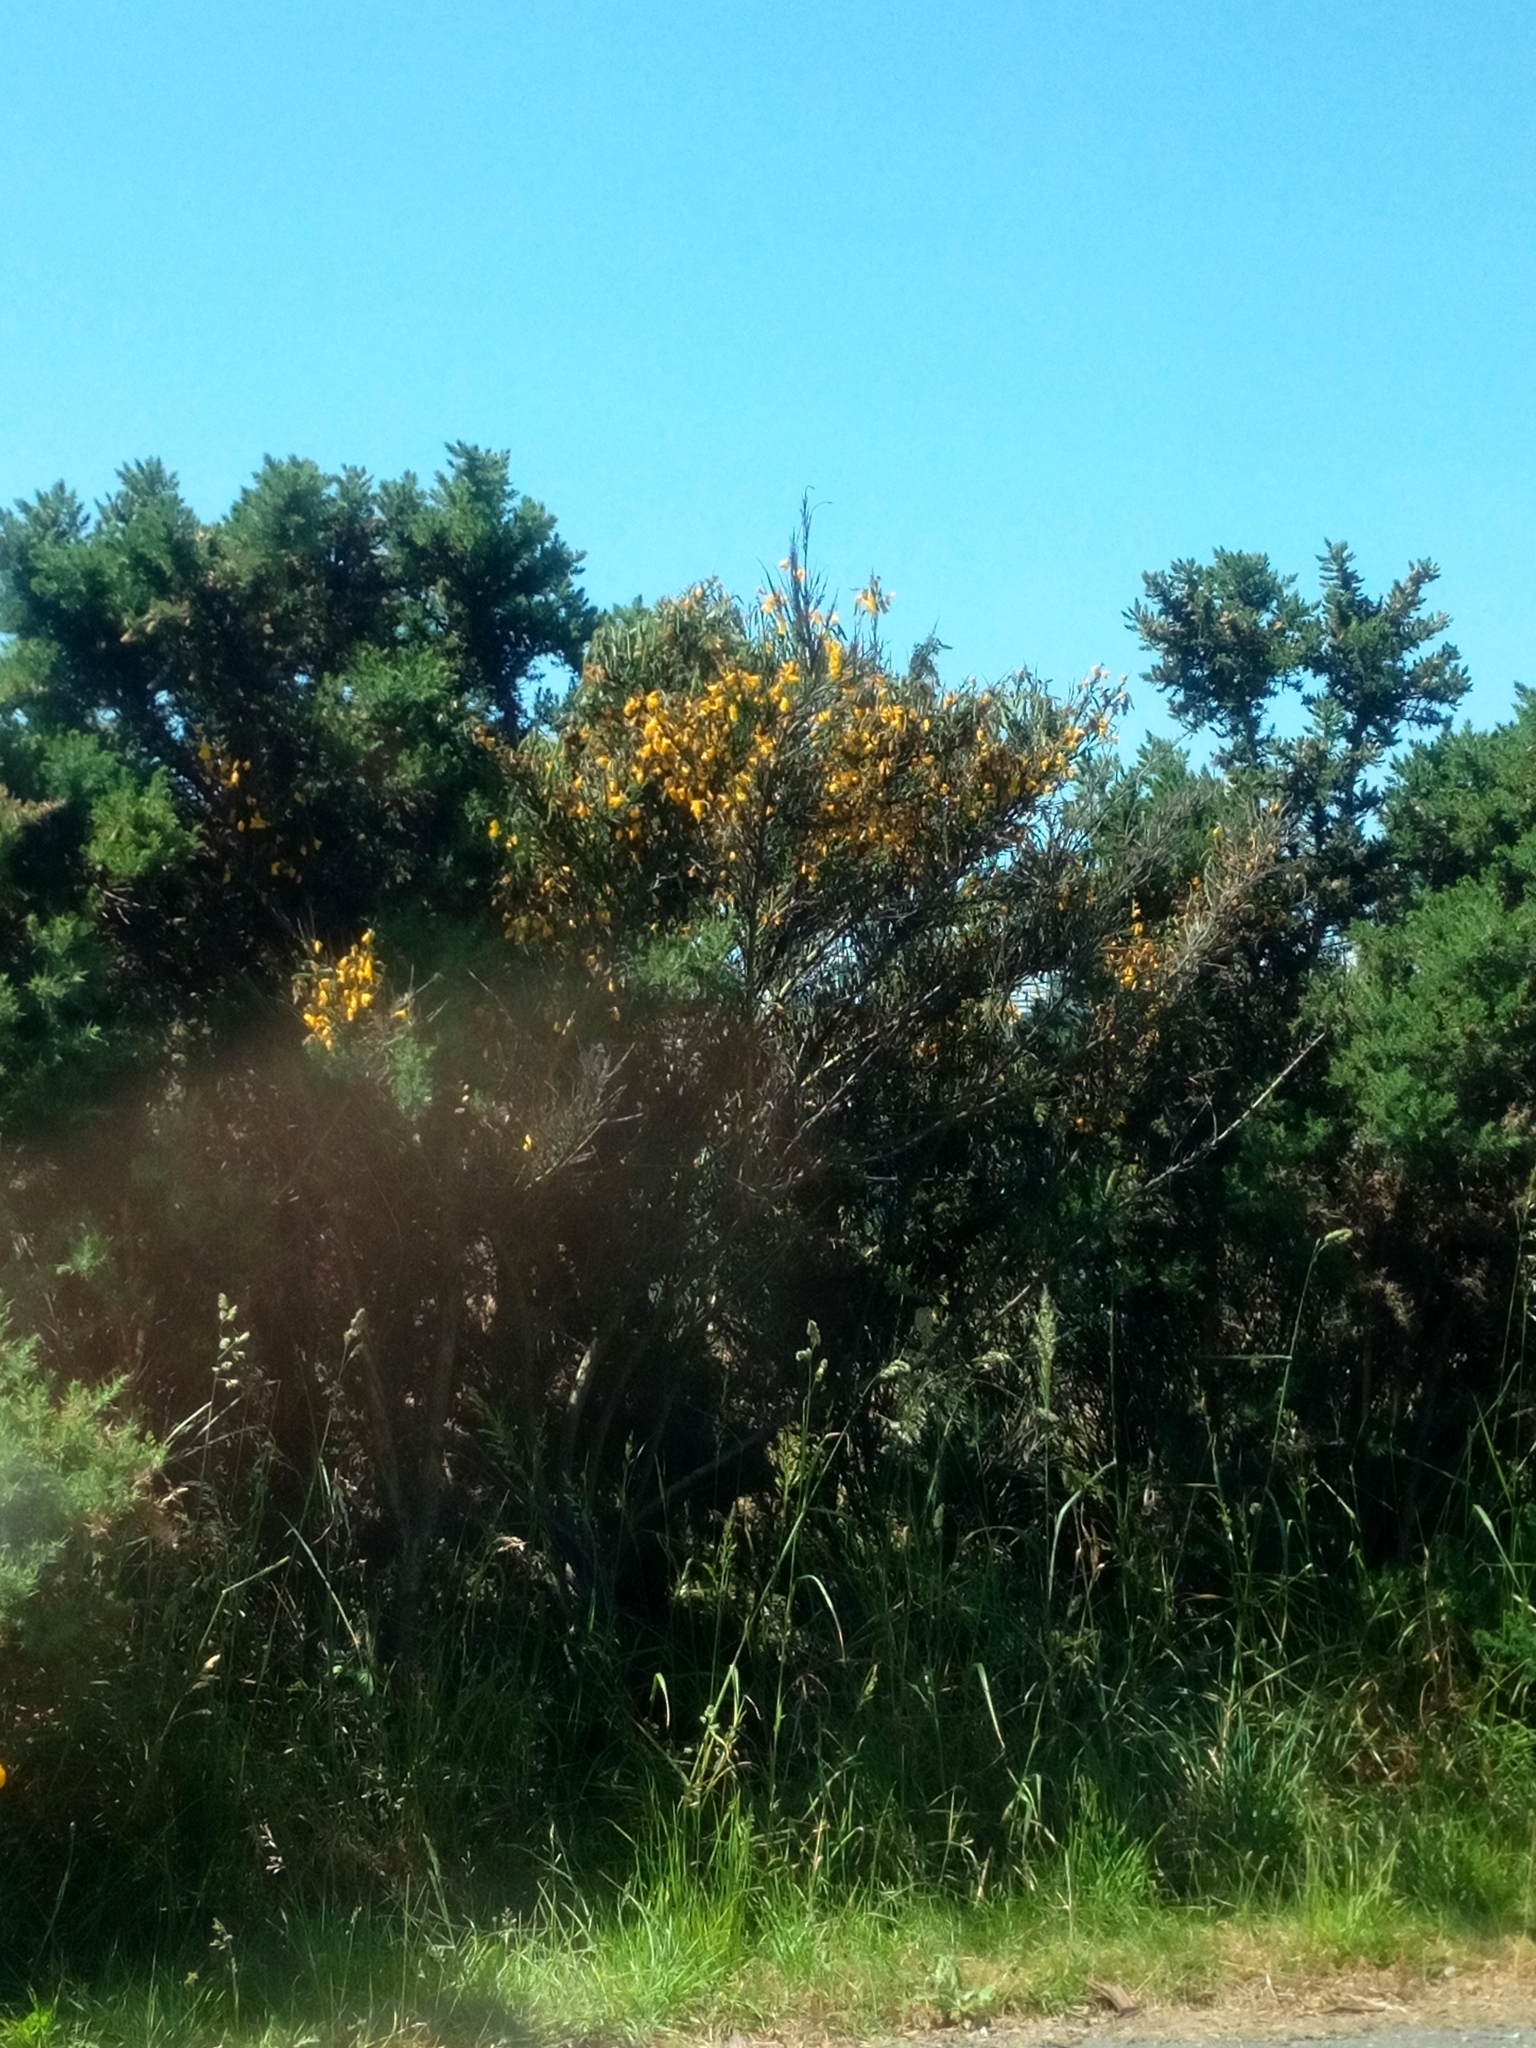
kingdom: Plantae
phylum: Tracheophyta
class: Magnoliopsida
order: Fabales
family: Fabaceae
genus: Ulex
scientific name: Ulex europaeus
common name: Common gorse
